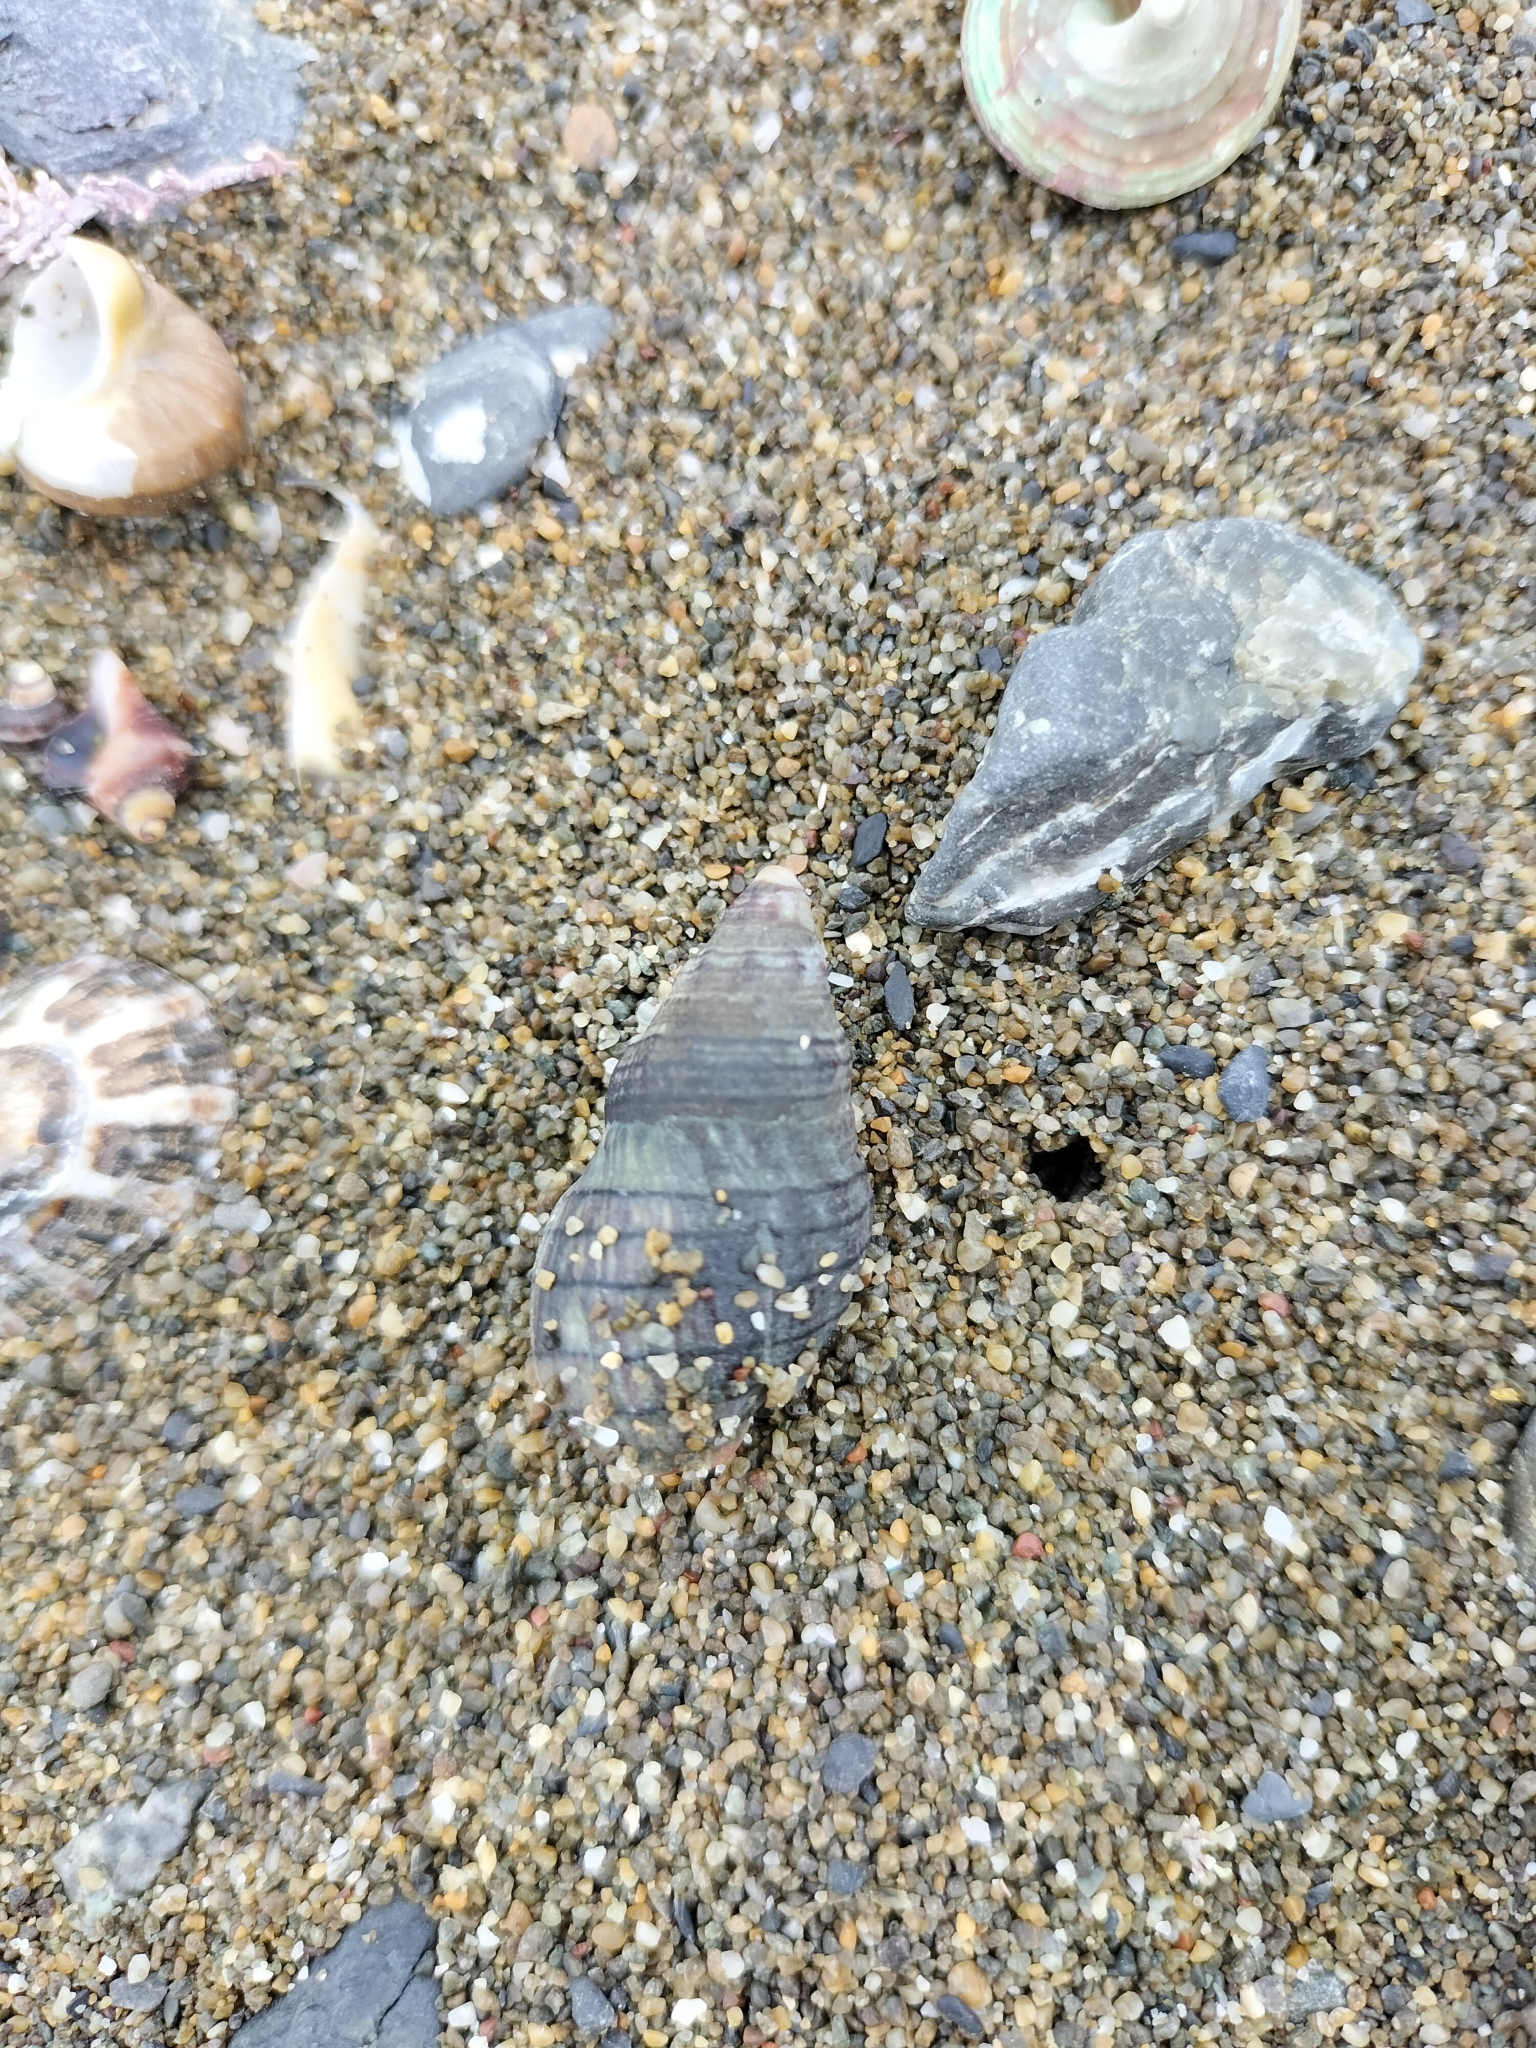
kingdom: Animalia
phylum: Mollusca
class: Gastropoda
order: Neogastropoda
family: Cominellidae
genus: Cominella
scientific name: Cominella virgata
